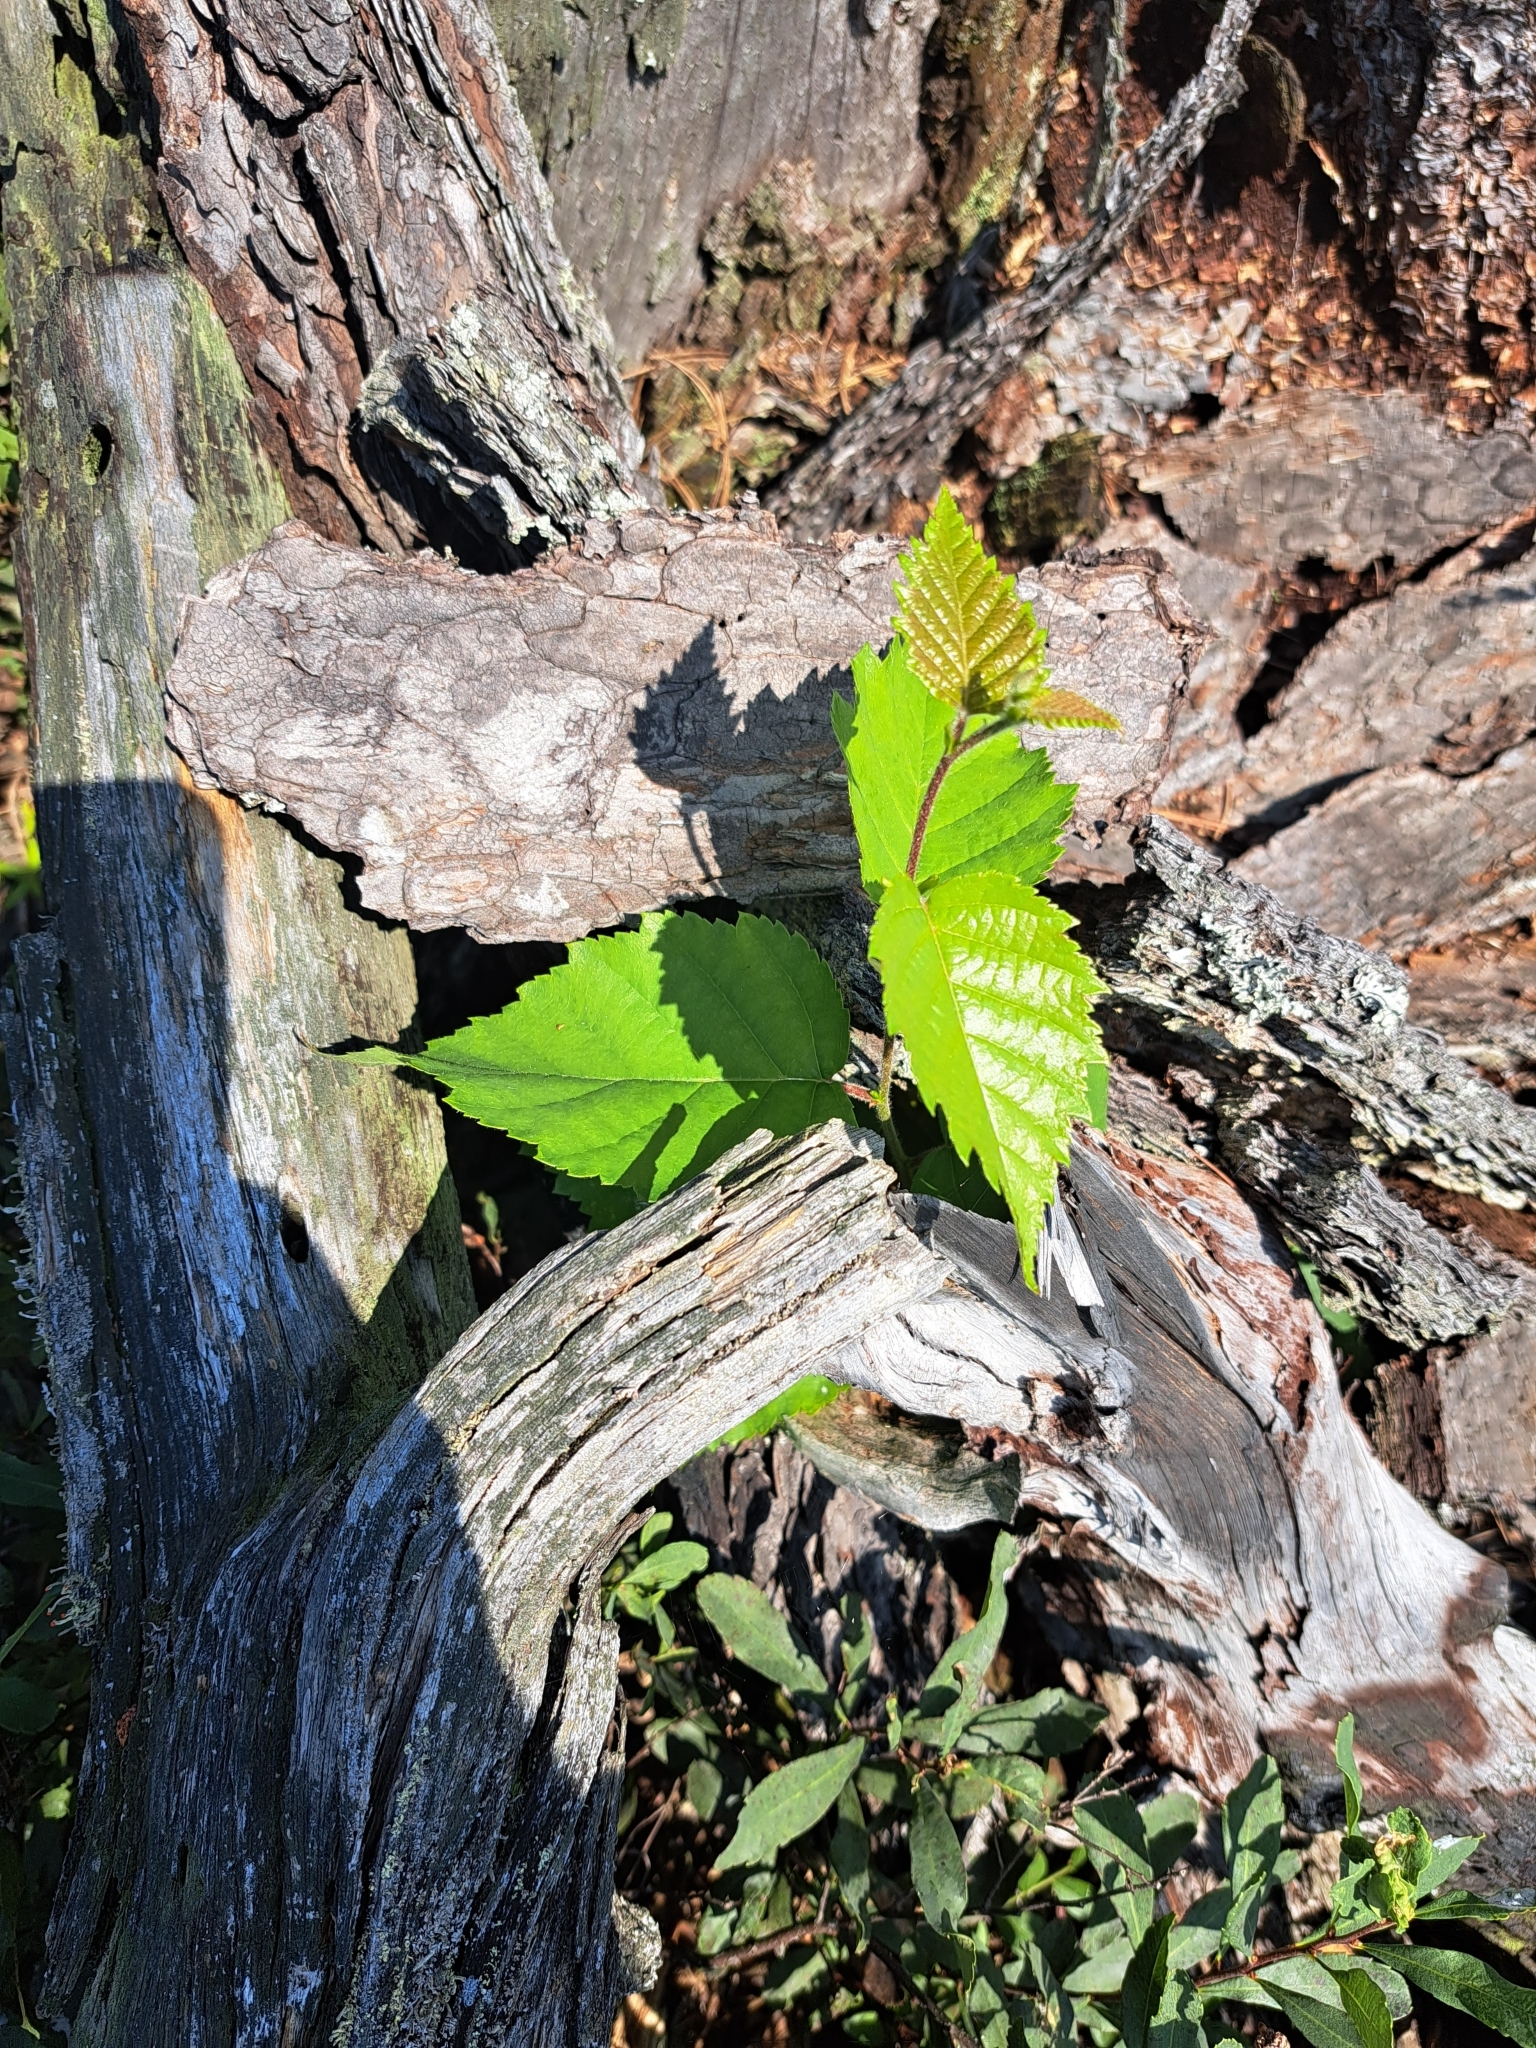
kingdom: Plantae
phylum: Tracheophyta
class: Magnoliopsida
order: Fagales
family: Betulaceae
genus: Betula
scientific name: Betula papyrifera
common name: Paper birch
